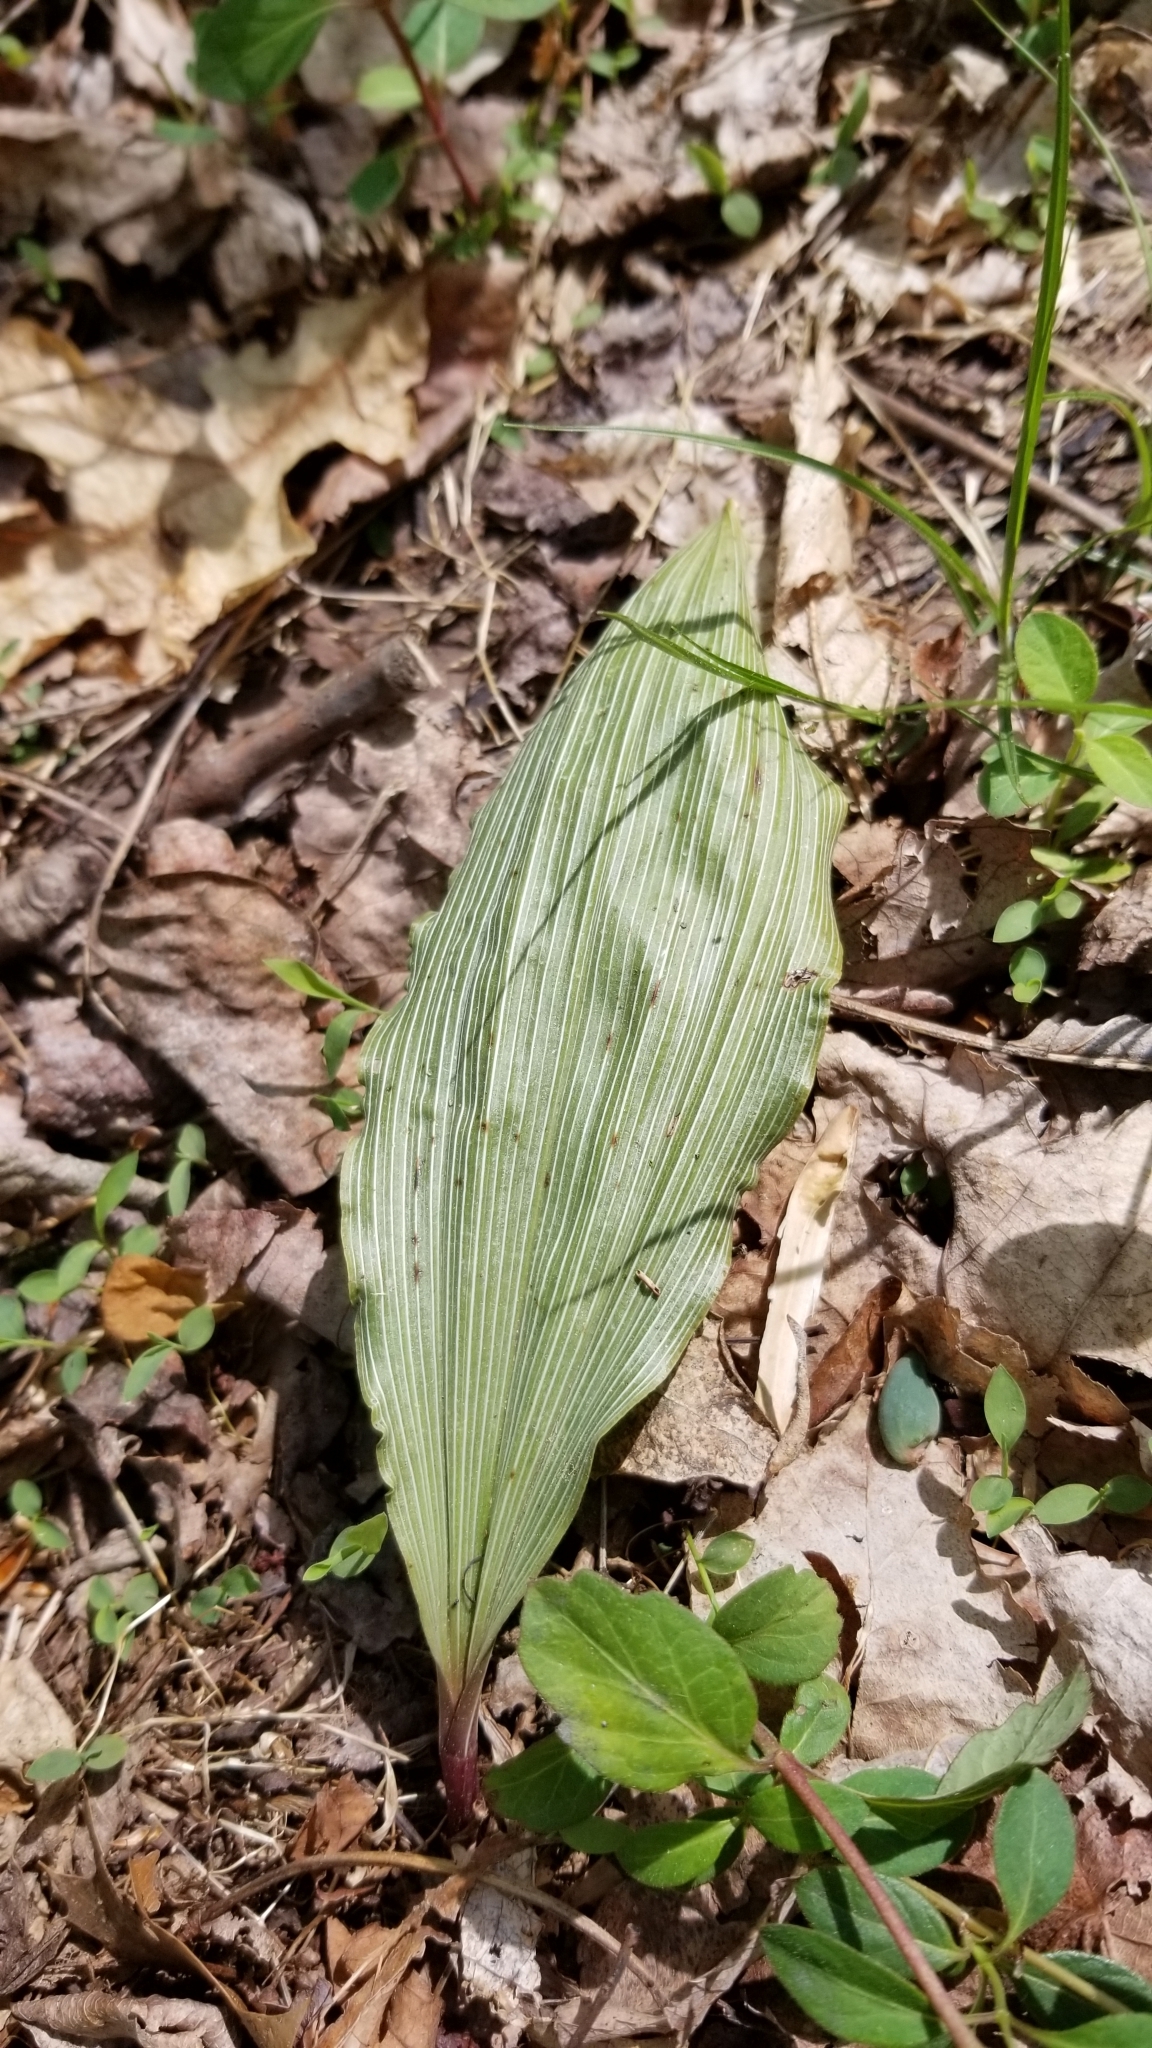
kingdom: Plantae
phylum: Tracheophyta
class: Liliopsida
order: Asparagales
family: Orchidaceae
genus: Aplectrum
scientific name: Aplectrum hyemale
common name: Adam-and-eve
